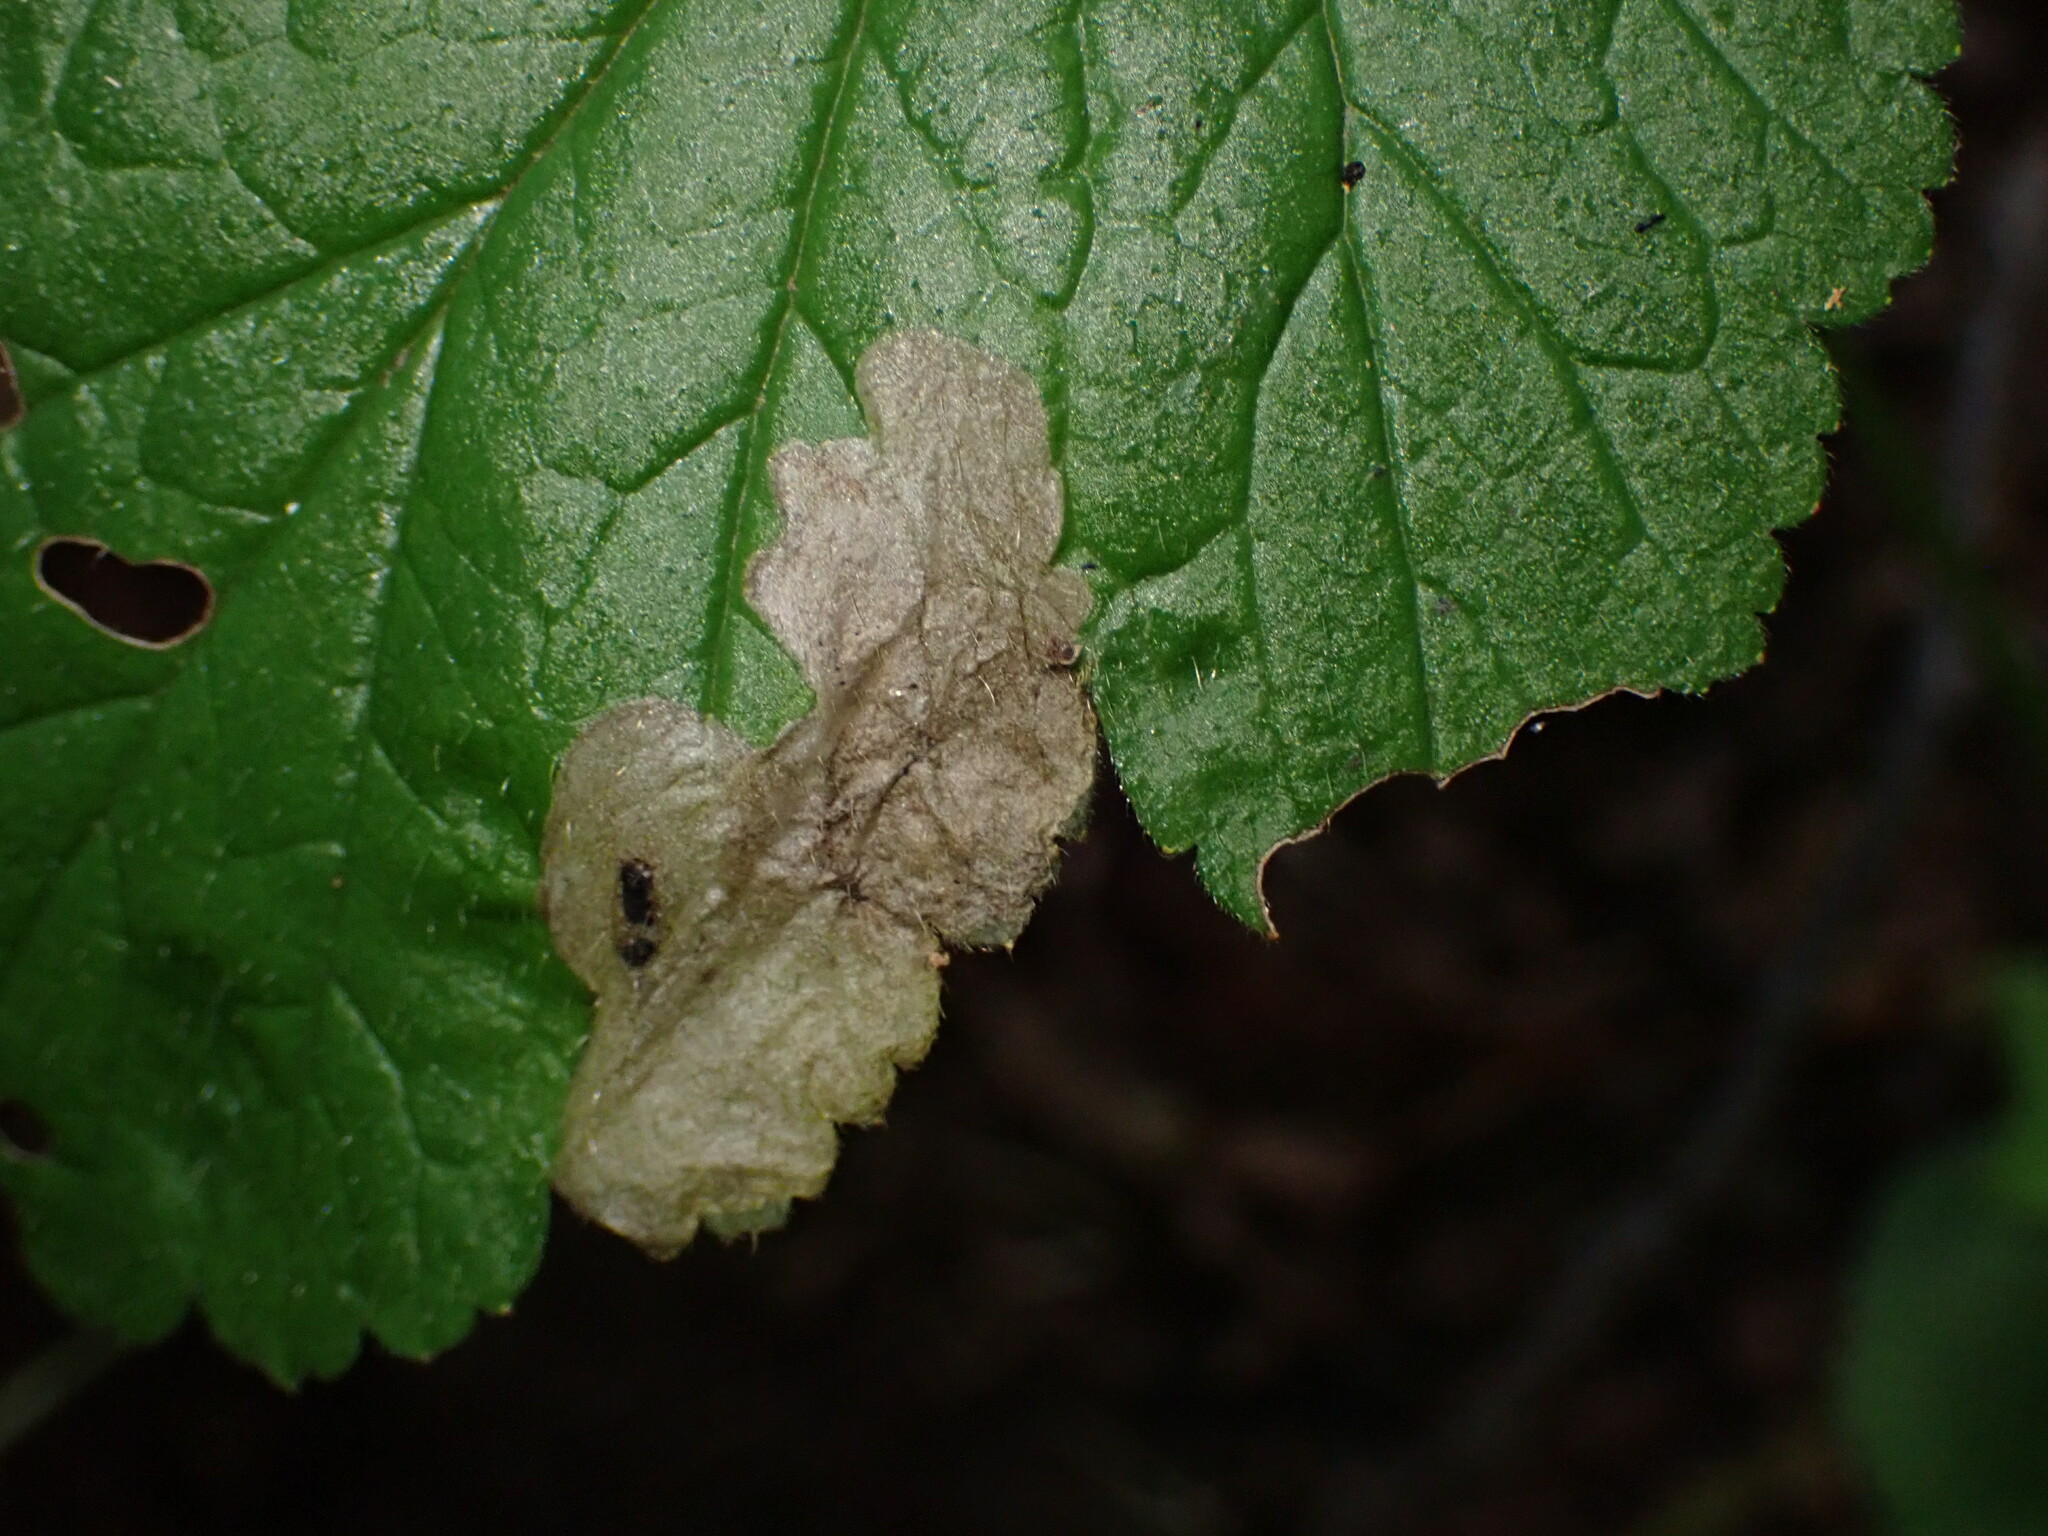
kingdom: Animalia
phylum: Arthropoda
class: Insecta
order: Hymenoptera
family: Tenthredinidae
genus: Metallus
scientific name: Metallus lanceolatus
